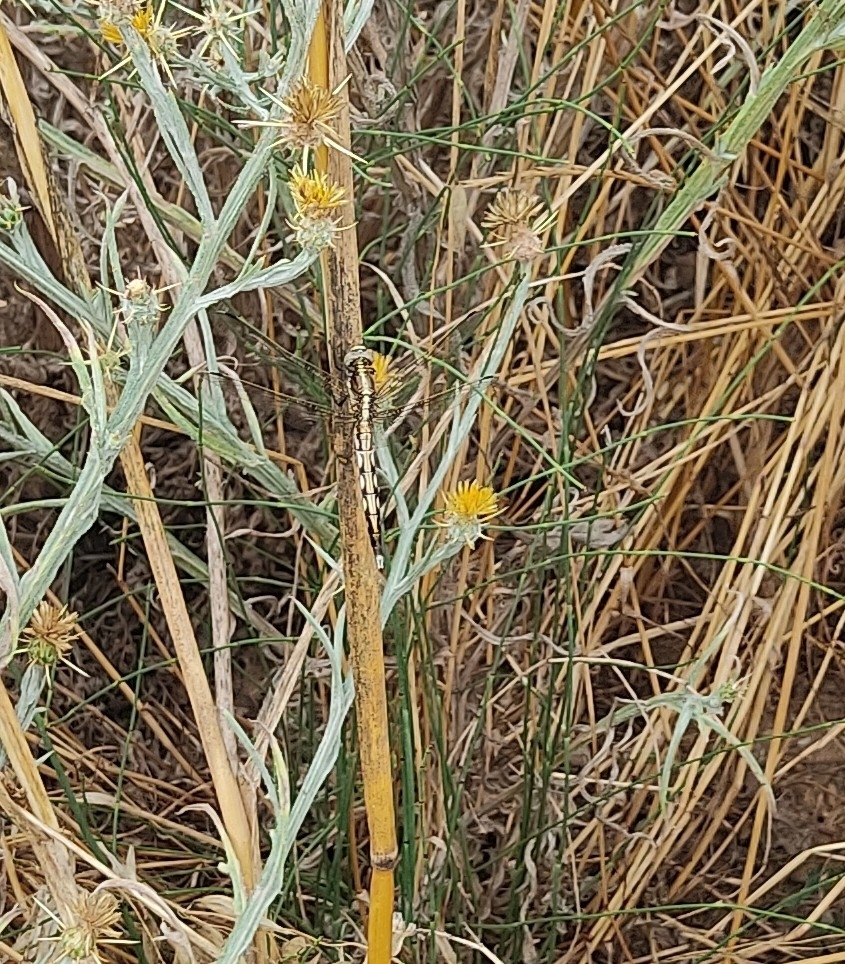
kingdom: Animalia
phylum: Arthropoda
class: Insecta
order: Odonata
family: Libellulidae
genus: Orthetrum
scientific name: Orthetrum albistylum
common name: White-tailed skimmer
